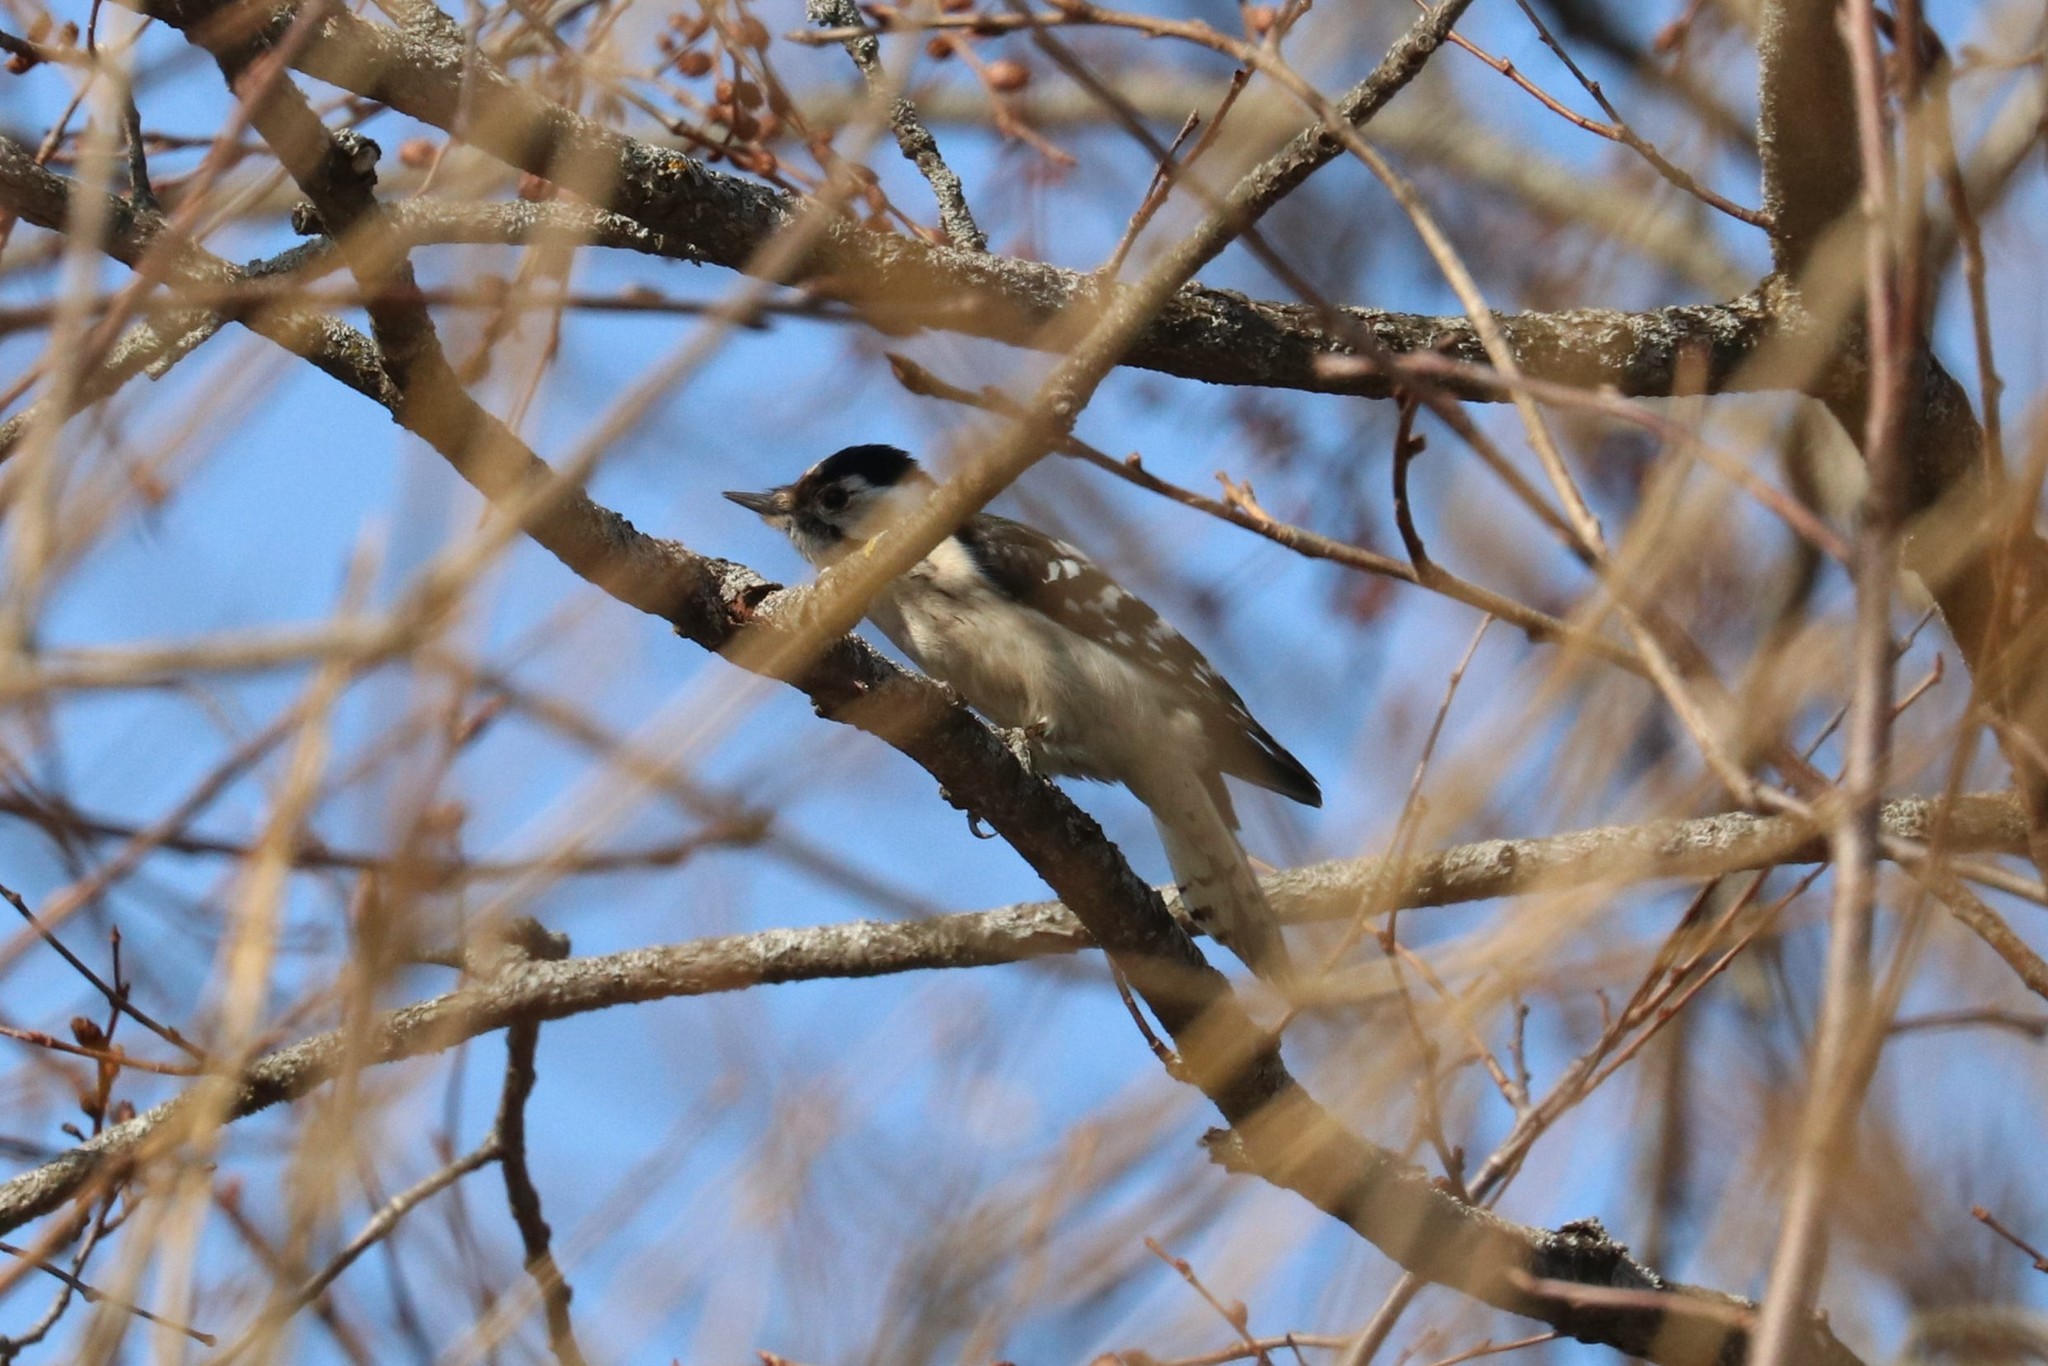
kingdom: Animalia
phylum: Chordata
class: Aves
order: Piciformes
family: Picidae
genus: Dryobates
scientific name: Dryobates minor
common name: Lesser spotted woodpecker
